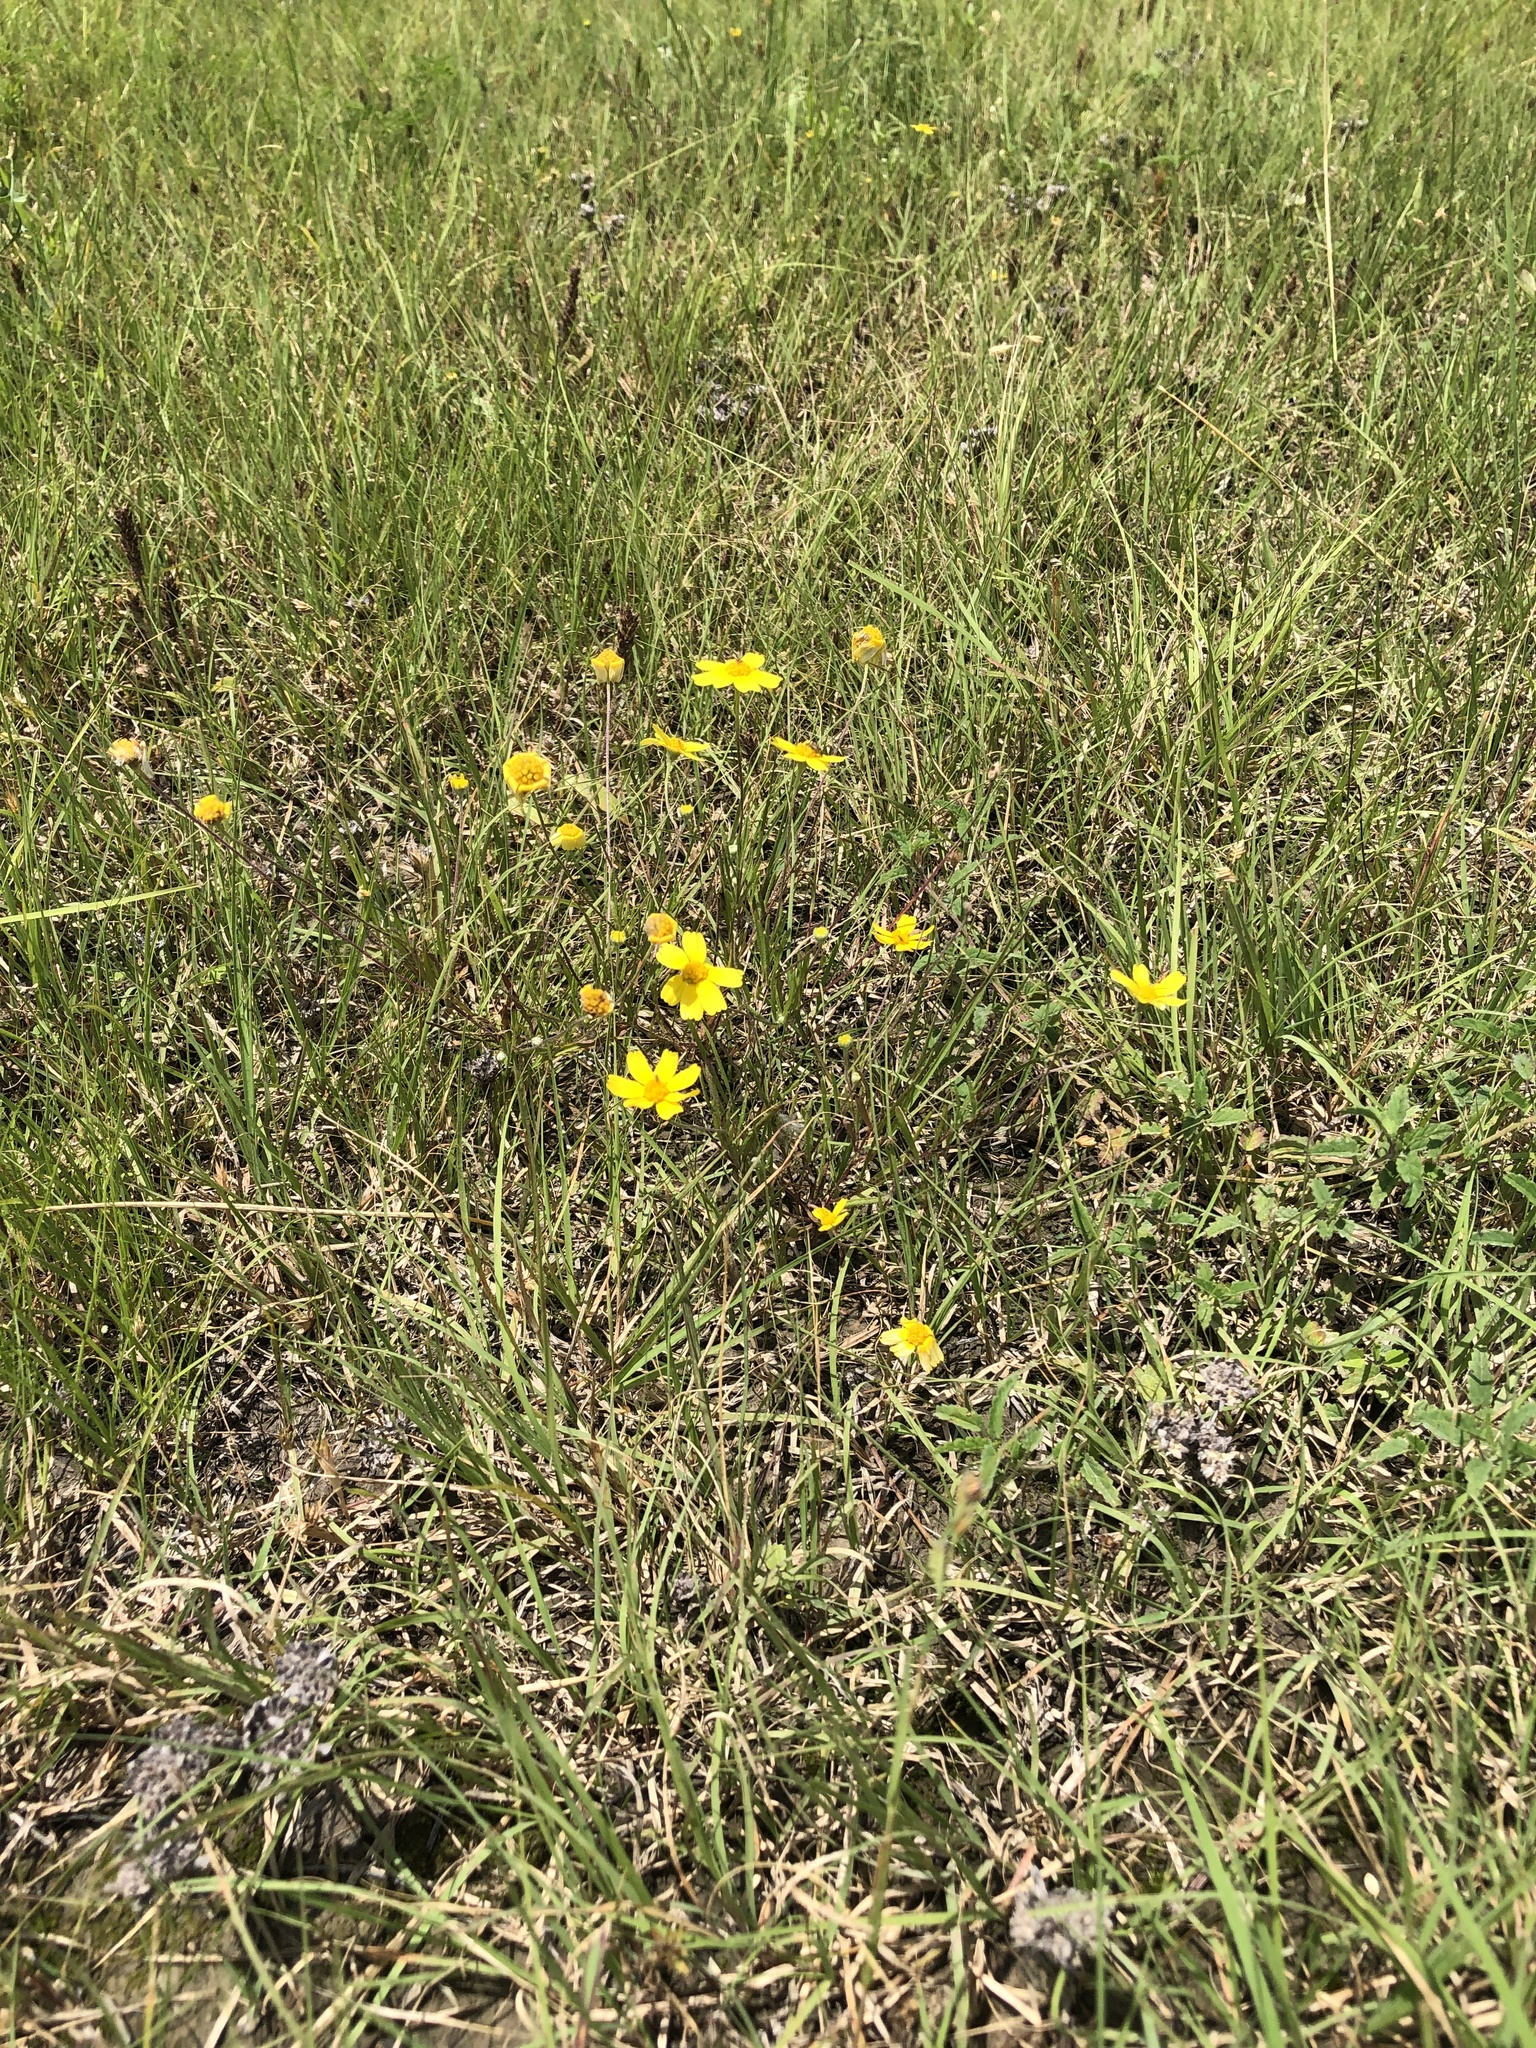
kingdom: Plantae
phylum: Tracheophyta
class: Magnoliopsida
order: Asterales
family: Asteraceae
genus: Tetraneuris
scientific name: Tetraneuris linearifolia
